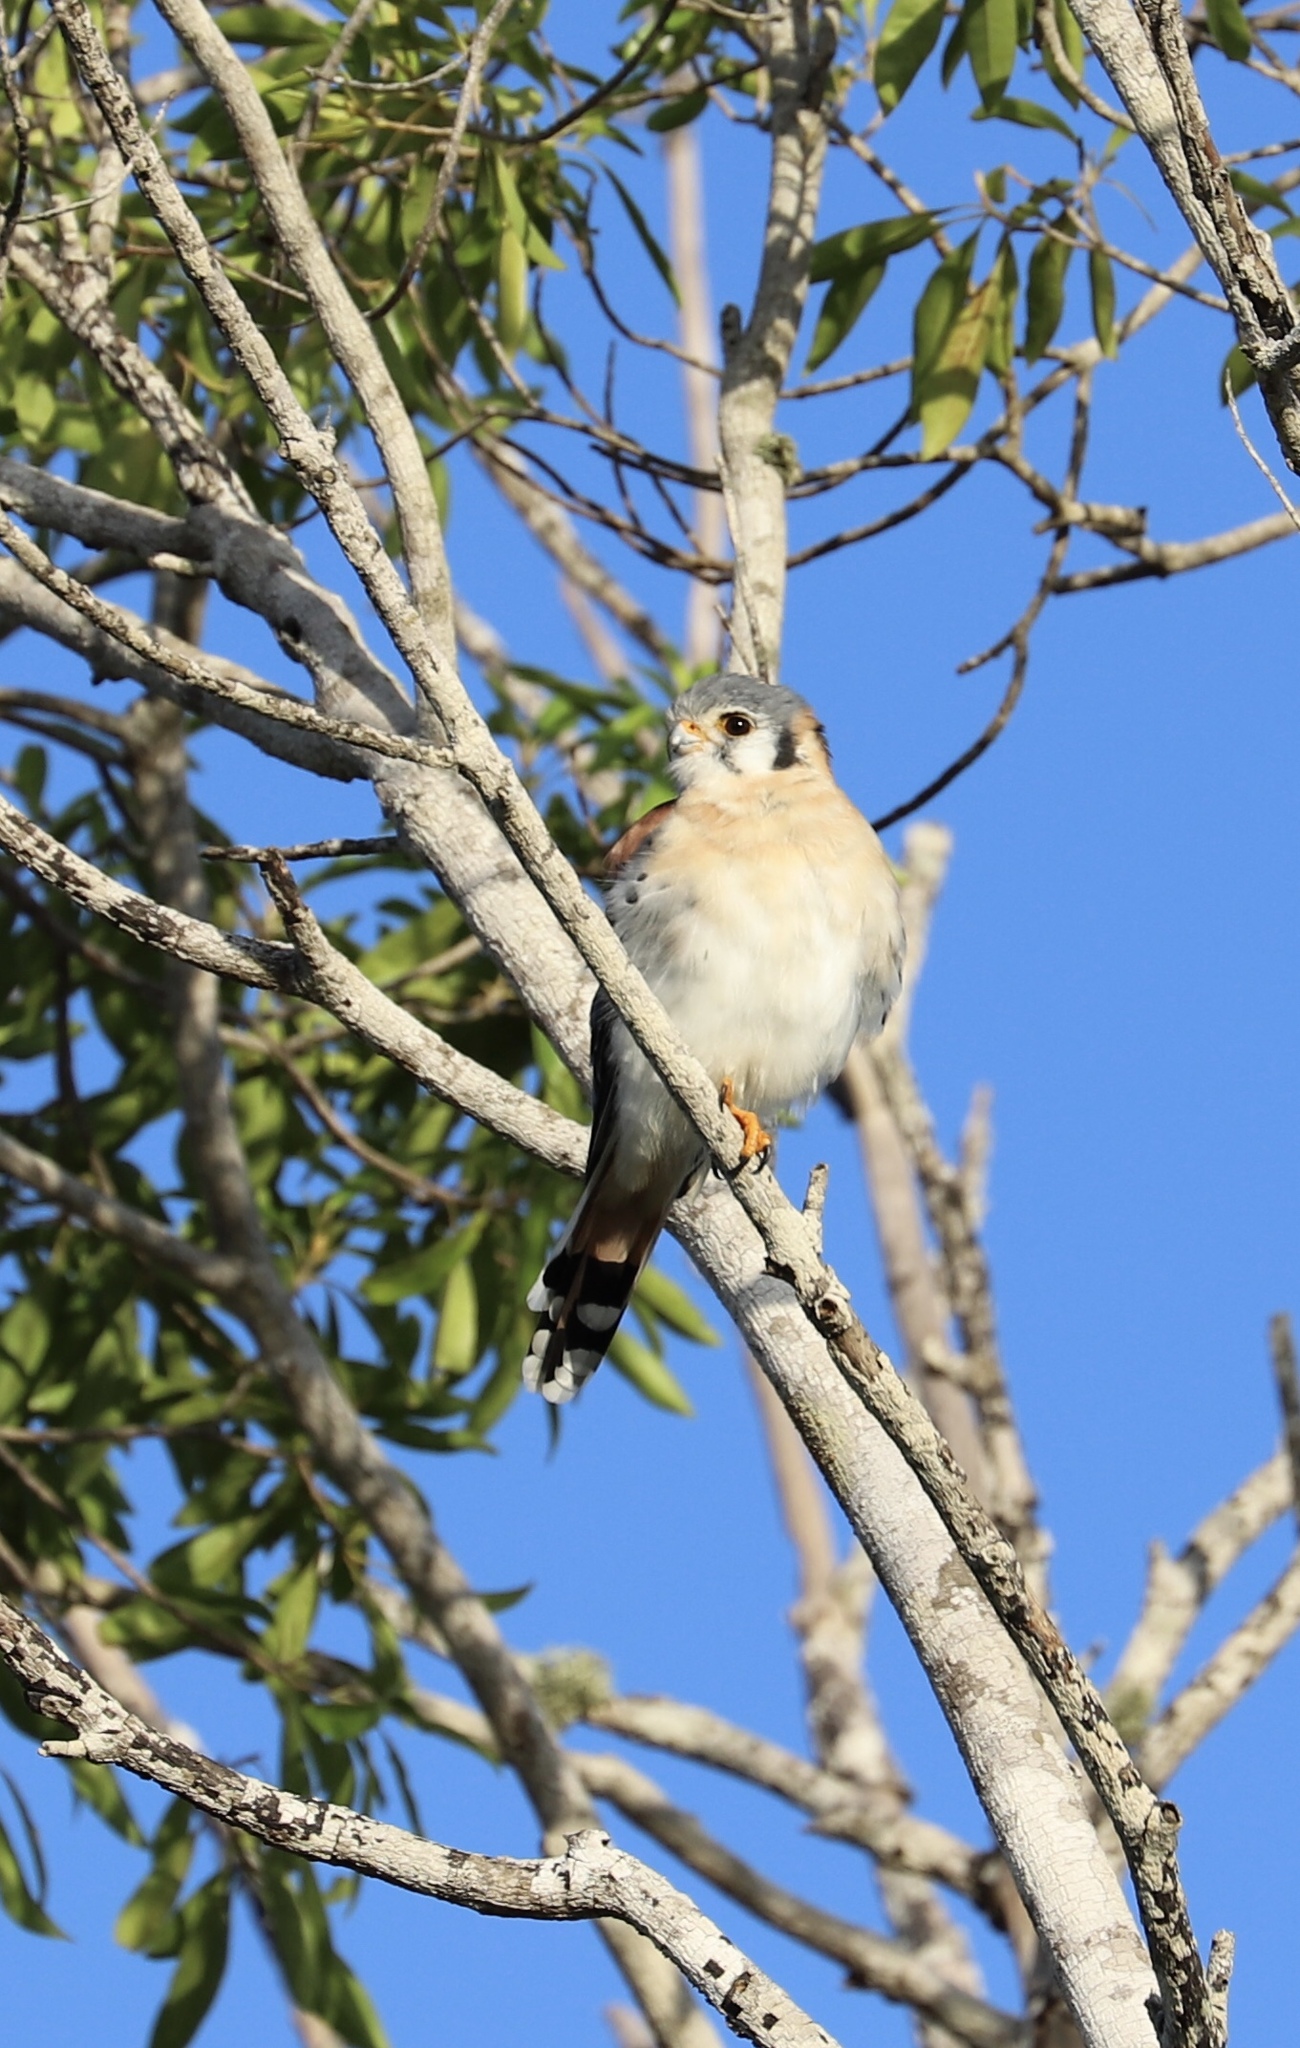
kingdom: Animalia
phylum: Chordata
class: Aves
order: Falconiformes
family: Falconidae
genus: Falco
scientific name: Falco sparverius
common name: American kestrel
